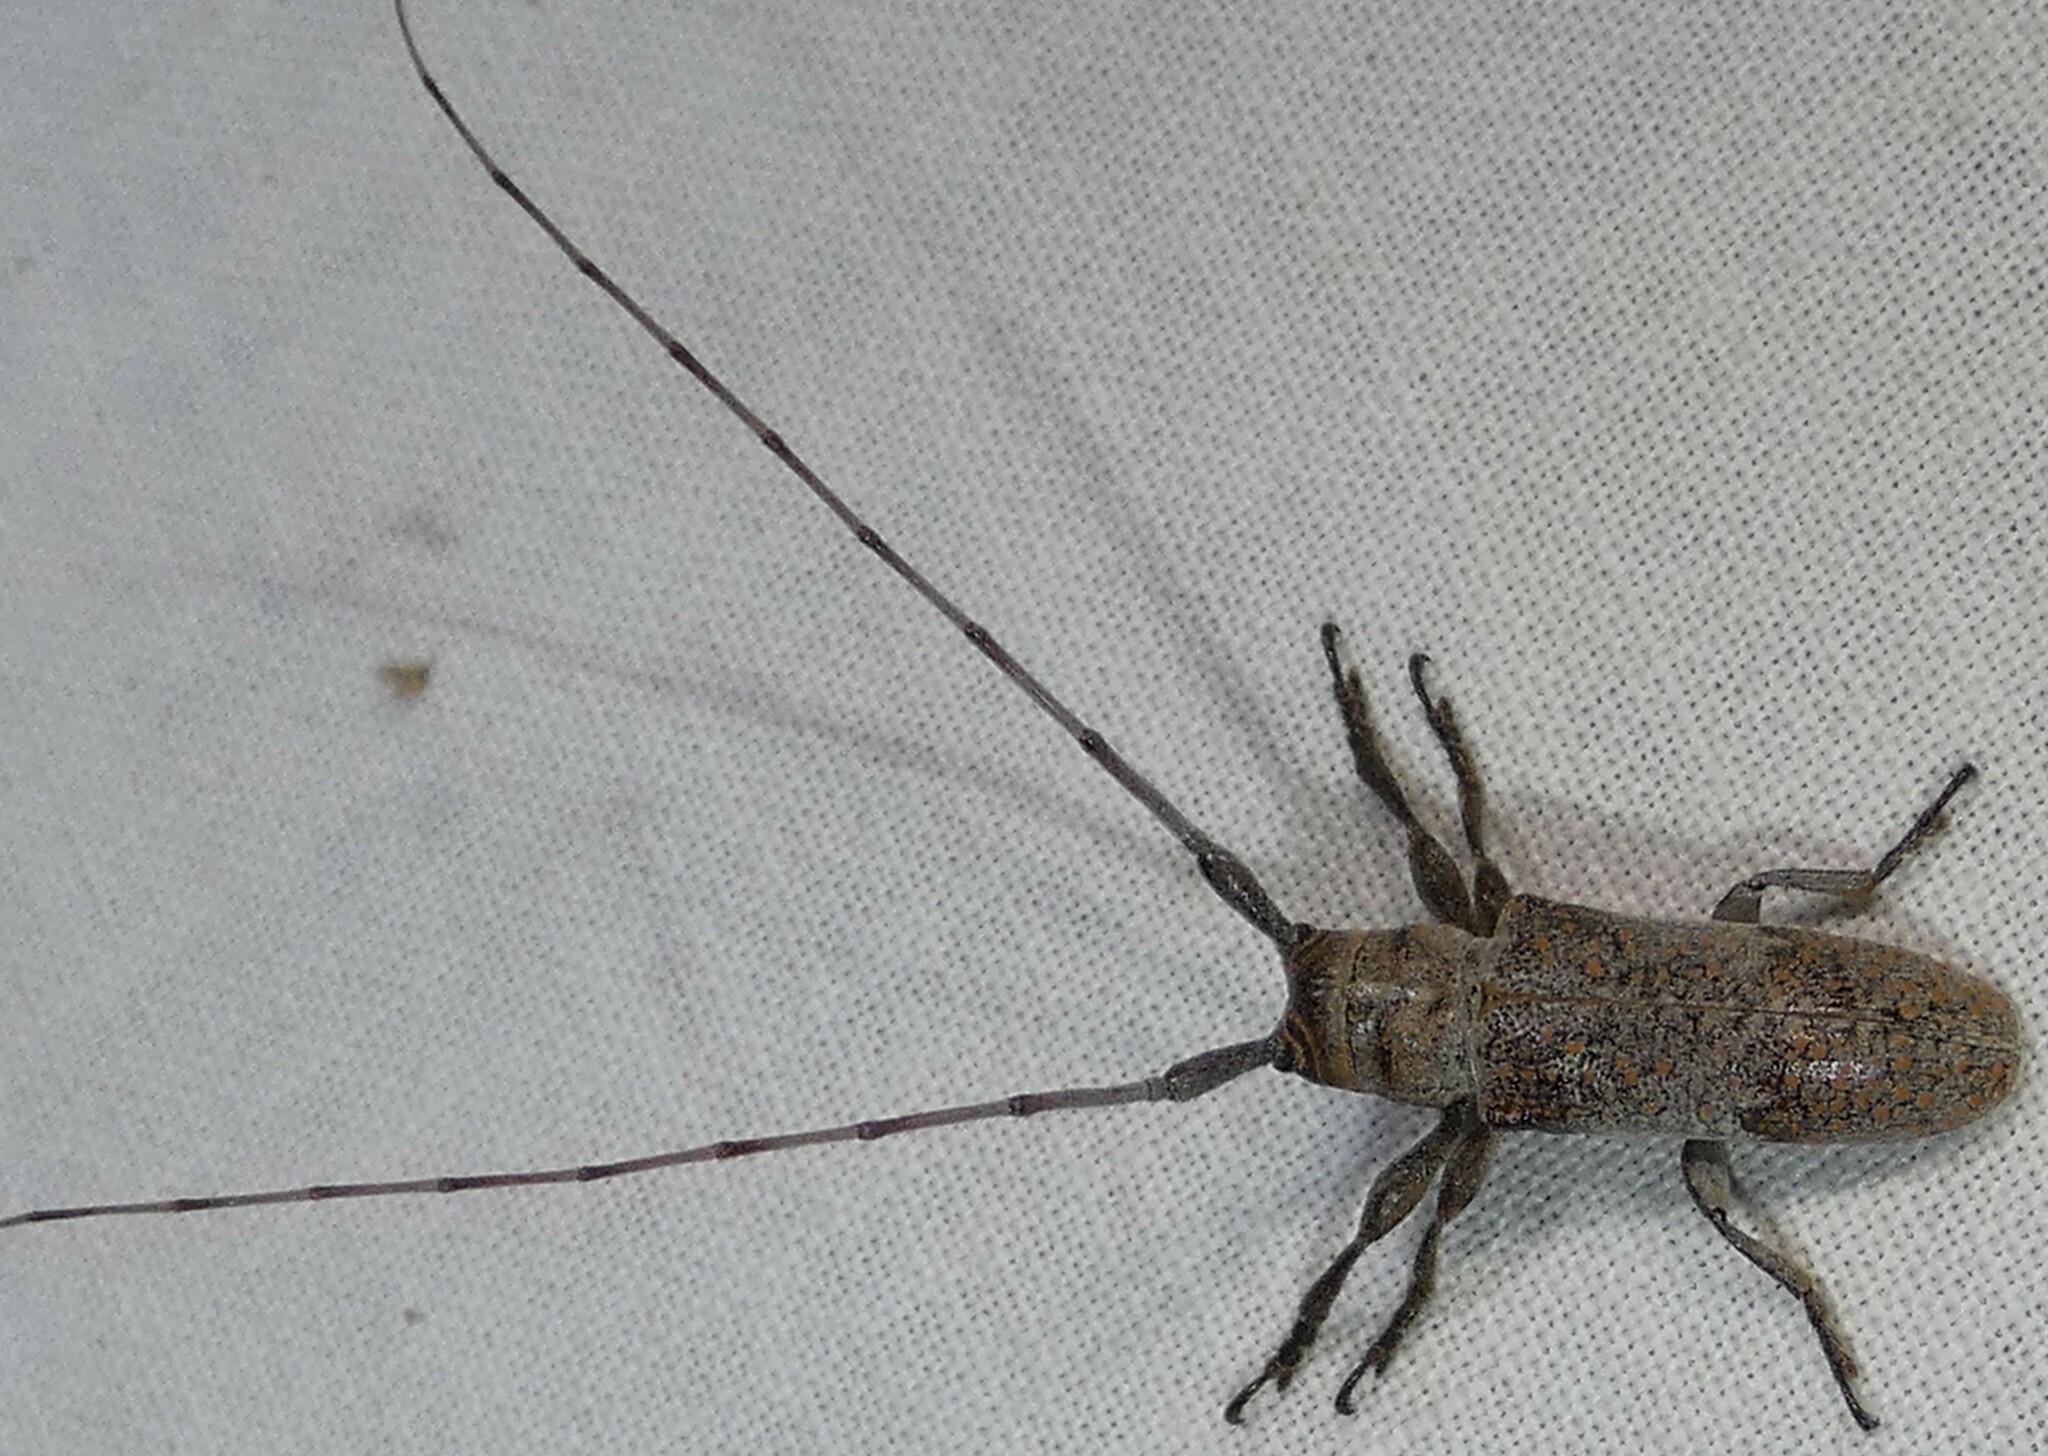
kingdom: Animalia
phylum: Arthropoda
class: Insecta
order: Coleoptera
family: Cerambycidae
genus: Oncideres
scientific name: Oncideres cingulata
